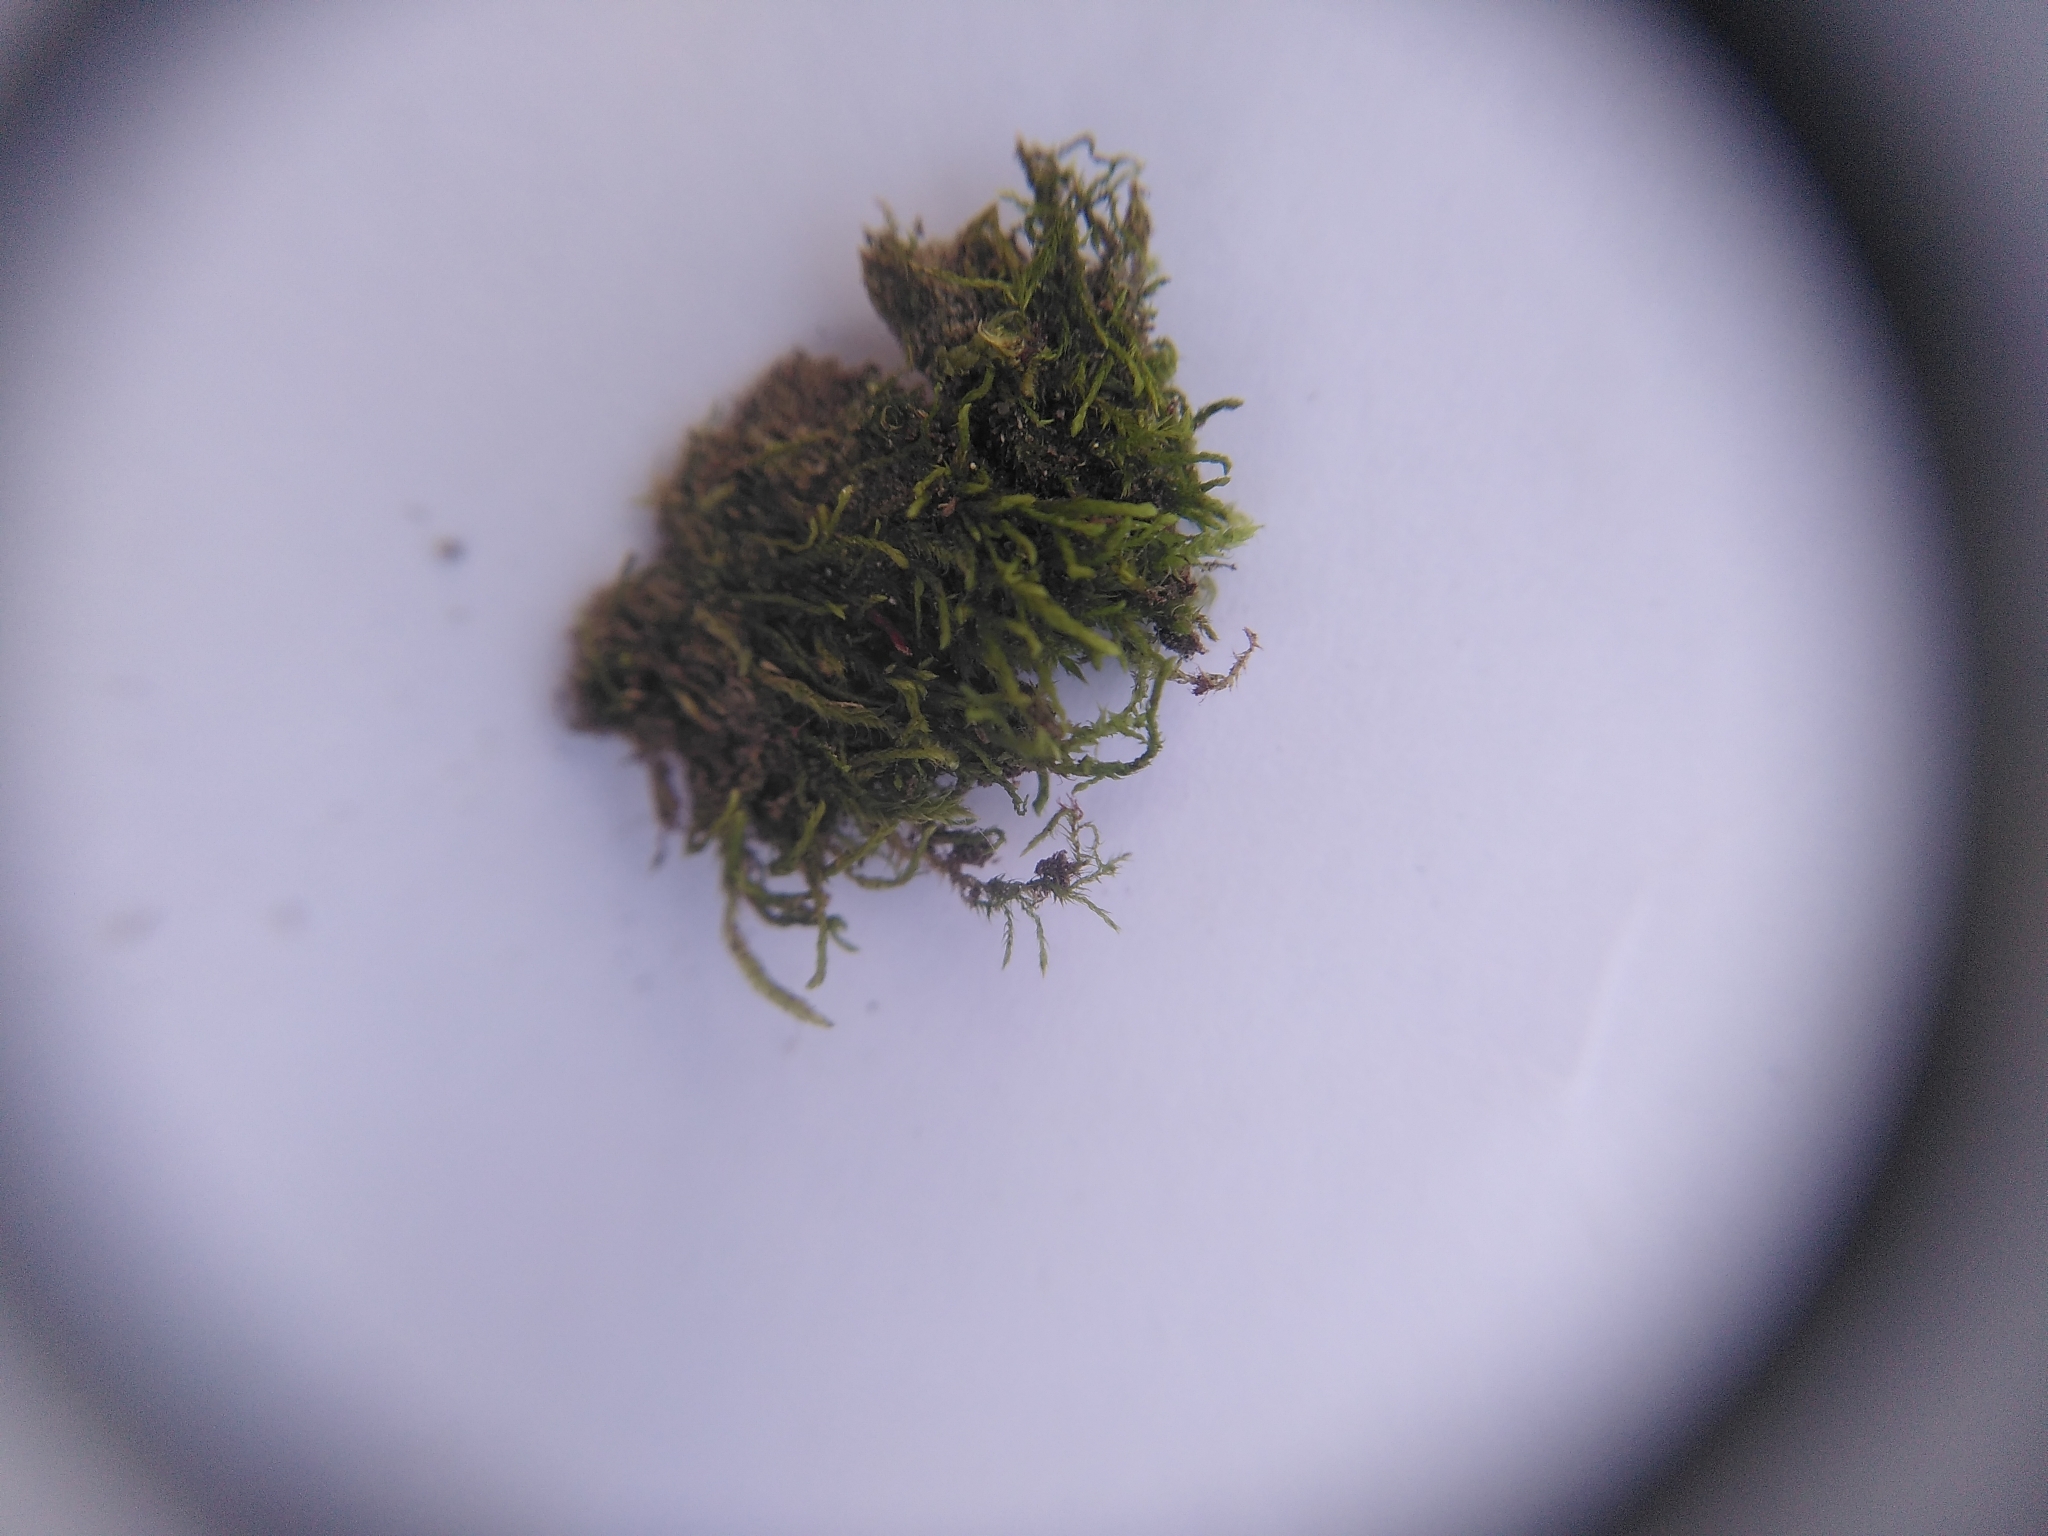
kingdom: Plantae
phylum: Bryophyta
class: Bryopsida
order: Hypnales
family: Leskeaceae
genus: Leskea
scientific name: Leskea polycarpa
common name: Many-fruited leske's moss
